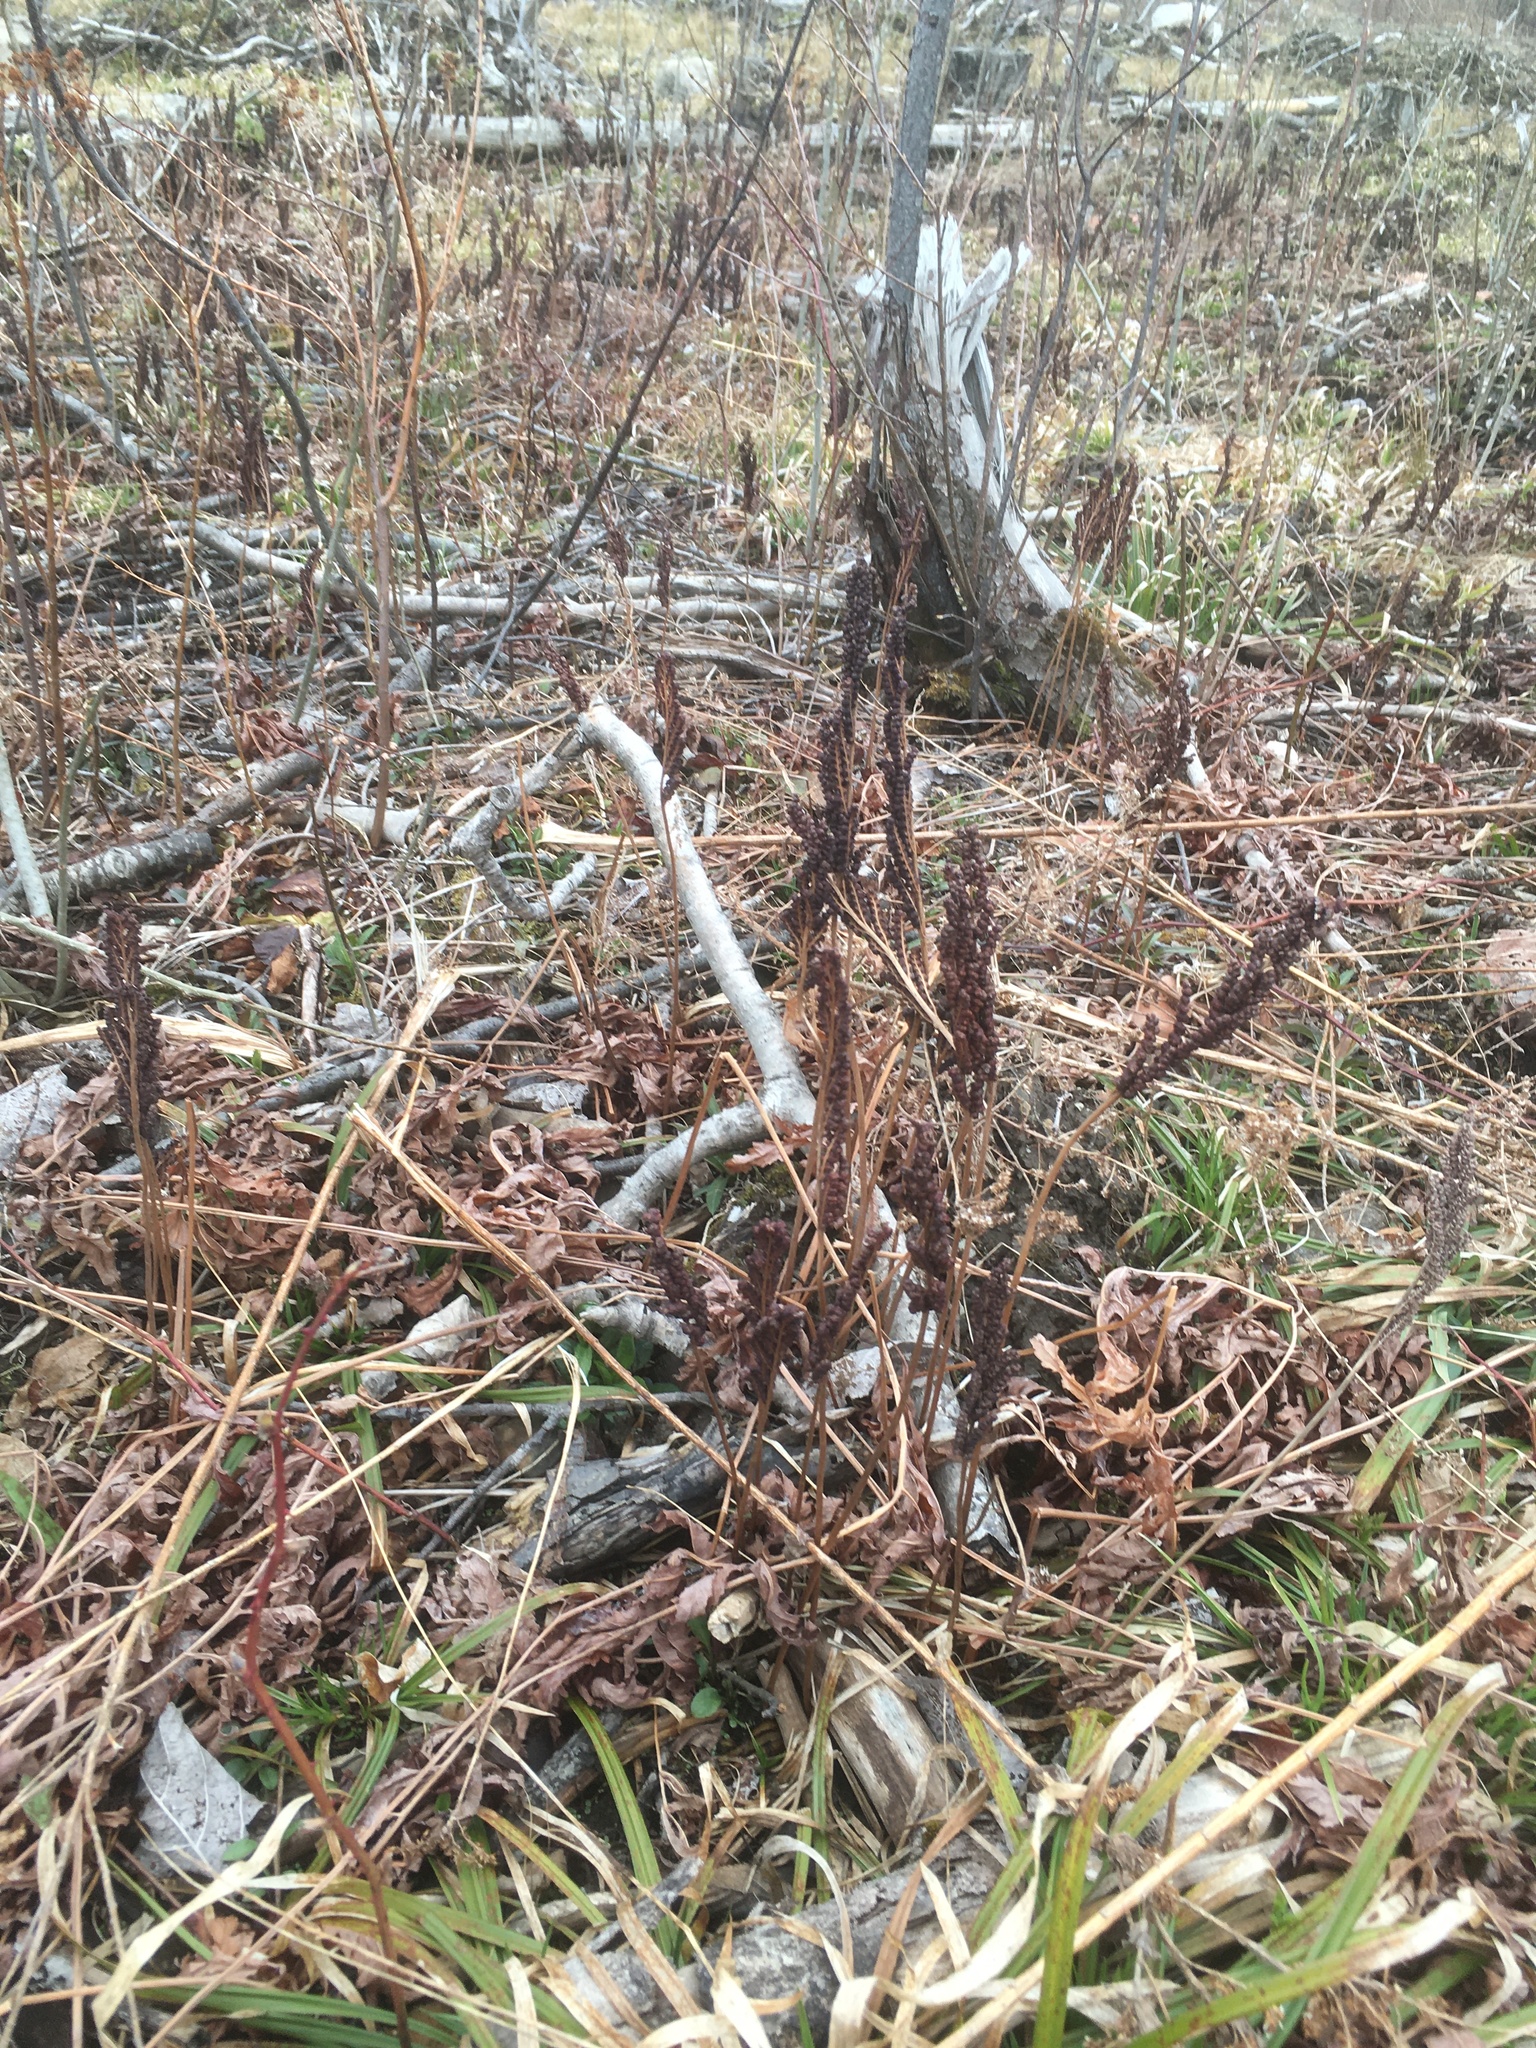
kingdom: Plantae
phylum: Tracheophyta
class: Polypodiopsida
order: Polypodiales
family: Onocleaceae
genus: Onoclea
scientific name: Onoclea sensibilis
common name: Sensitive fern
